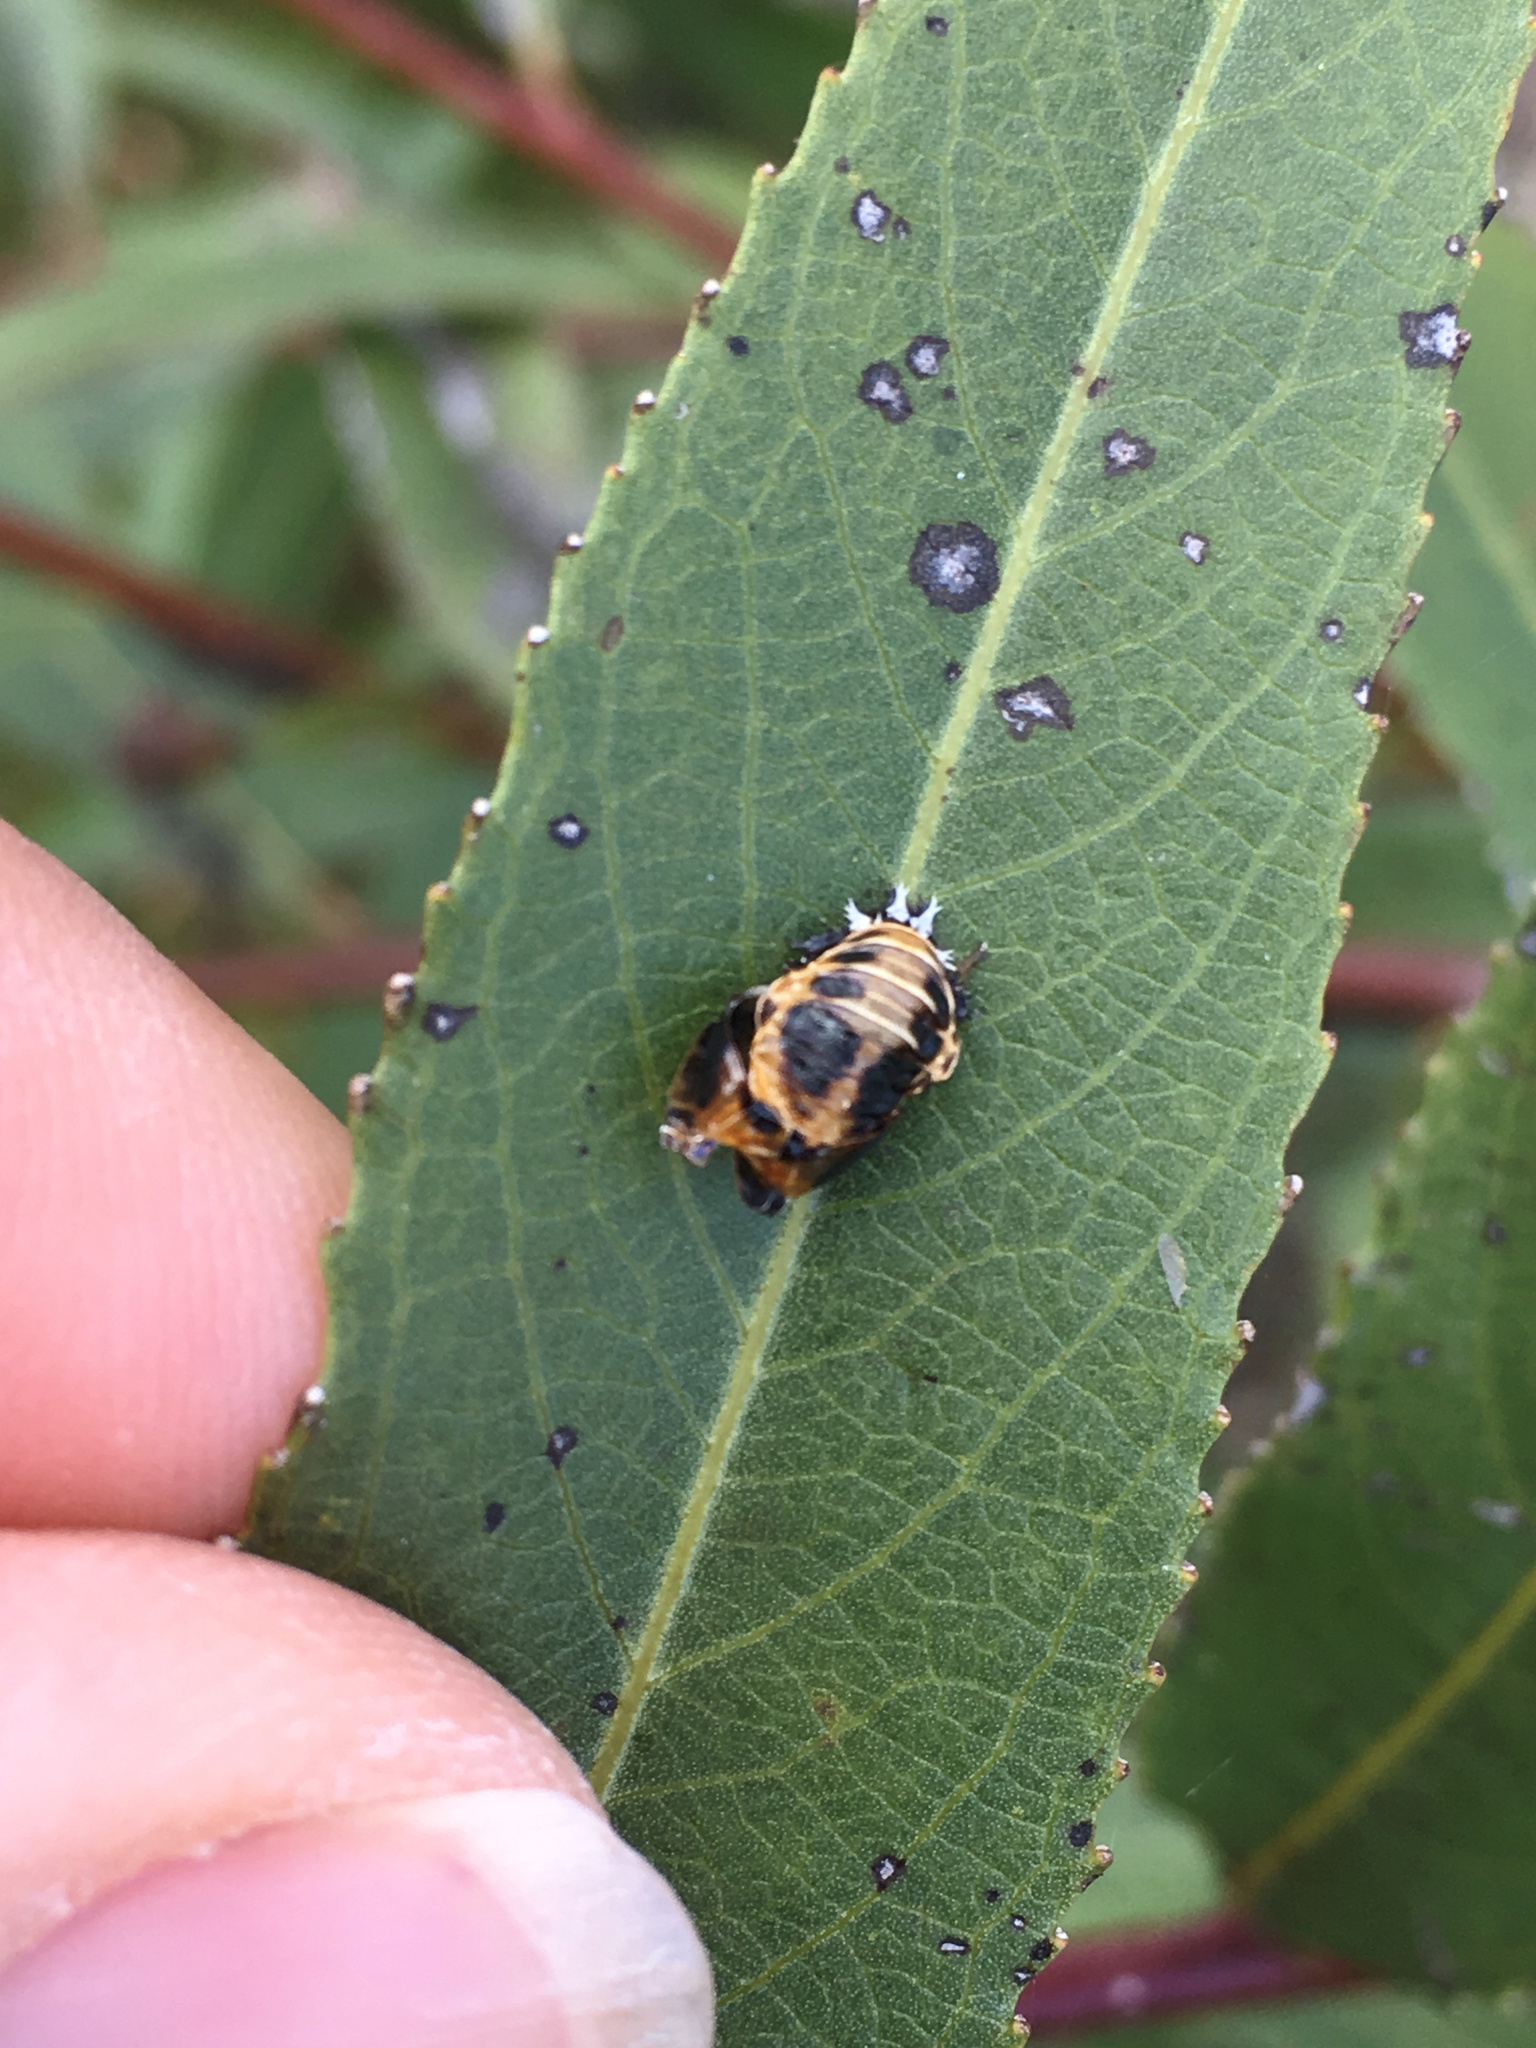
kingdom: Animalia
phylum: Arthropoda
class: Insecta
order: Coleoptera
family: Coccinellidae
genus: Harmonia
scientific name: Harmonia axyridis
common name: Harlequin ladybird
